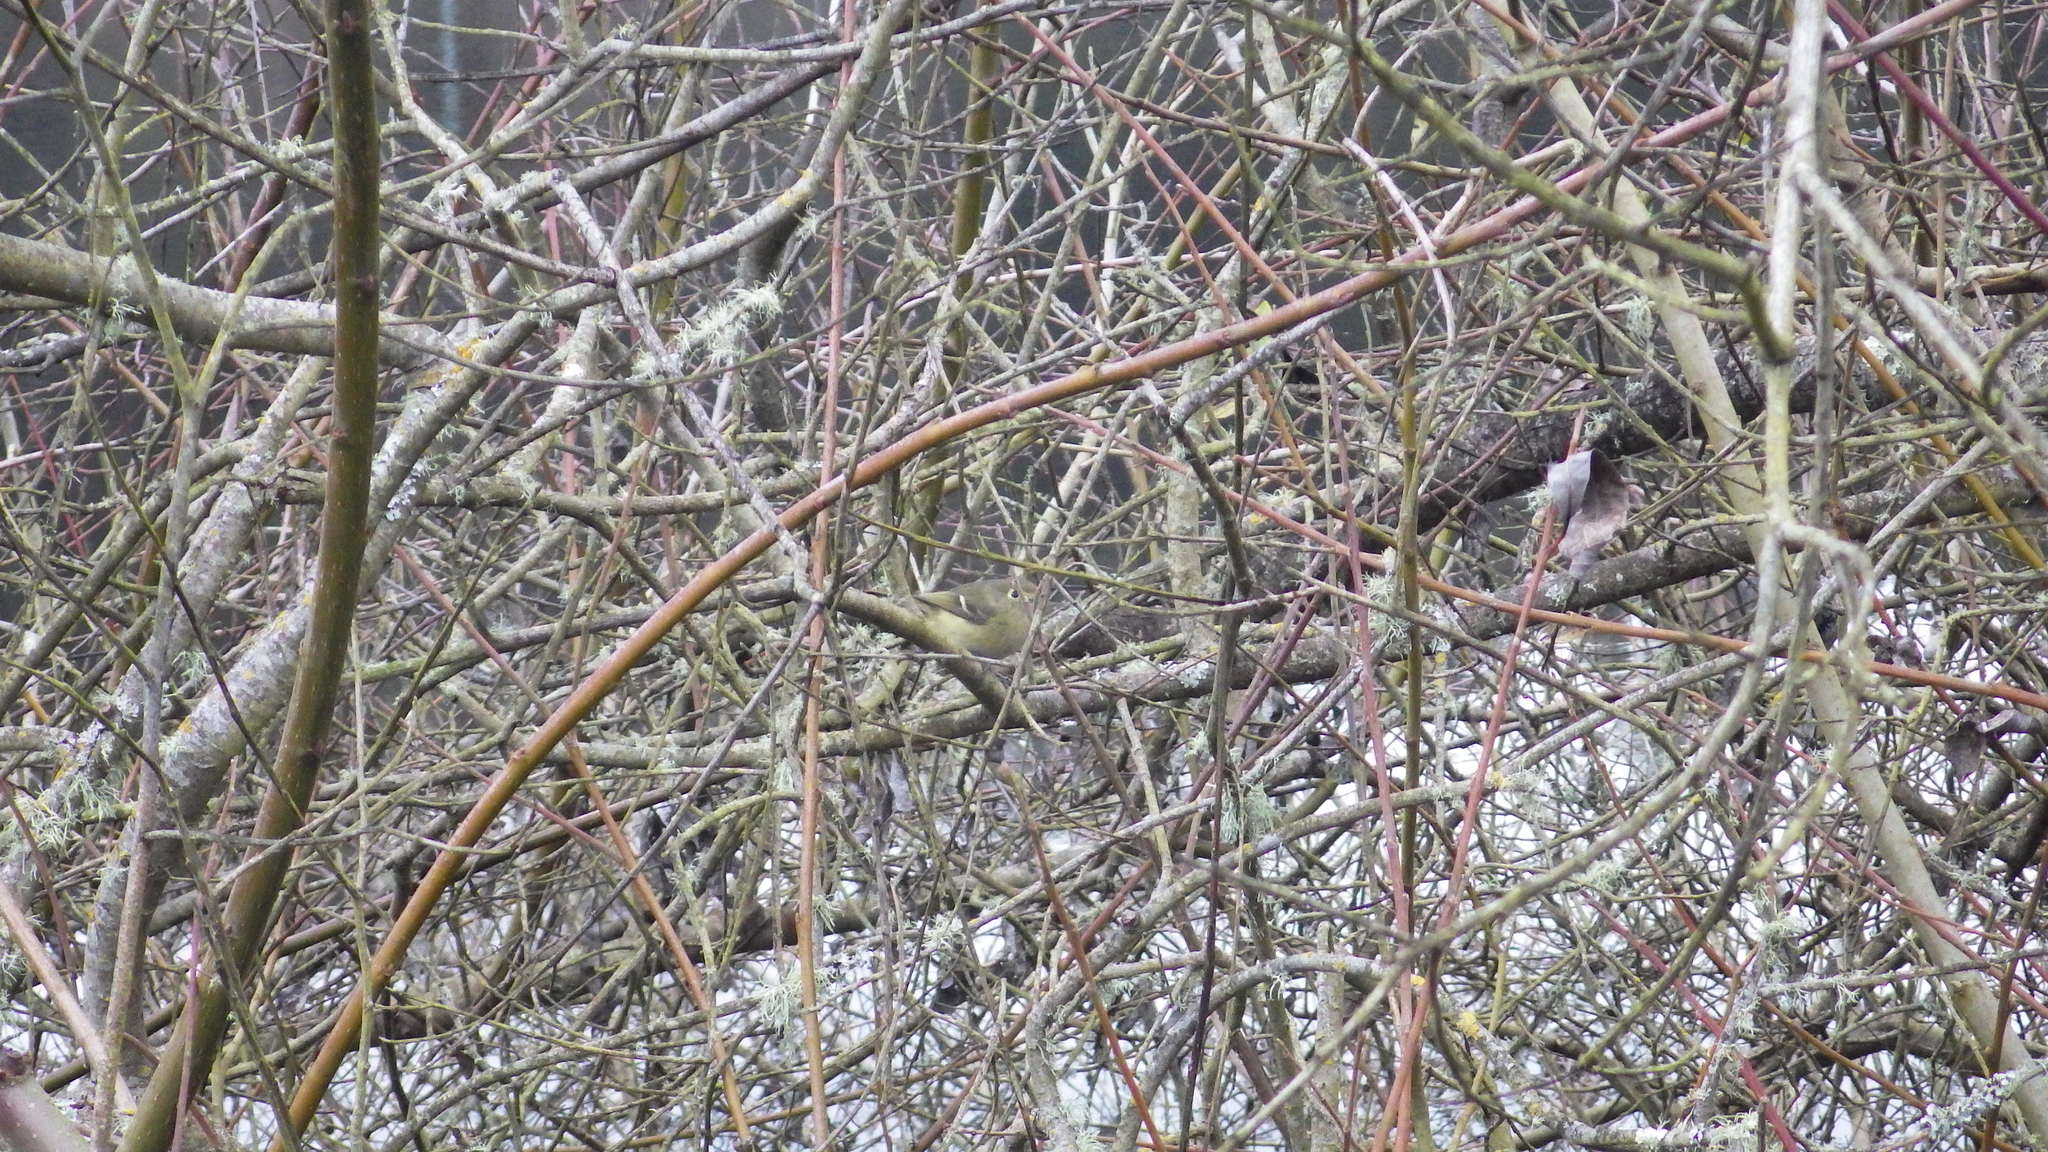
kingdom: Animalia
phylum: Chordata
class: Aves
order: Passeriformes
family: Vireonidae
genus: Vireo
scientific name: Vireo huttoni
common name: Hutton's vireo
